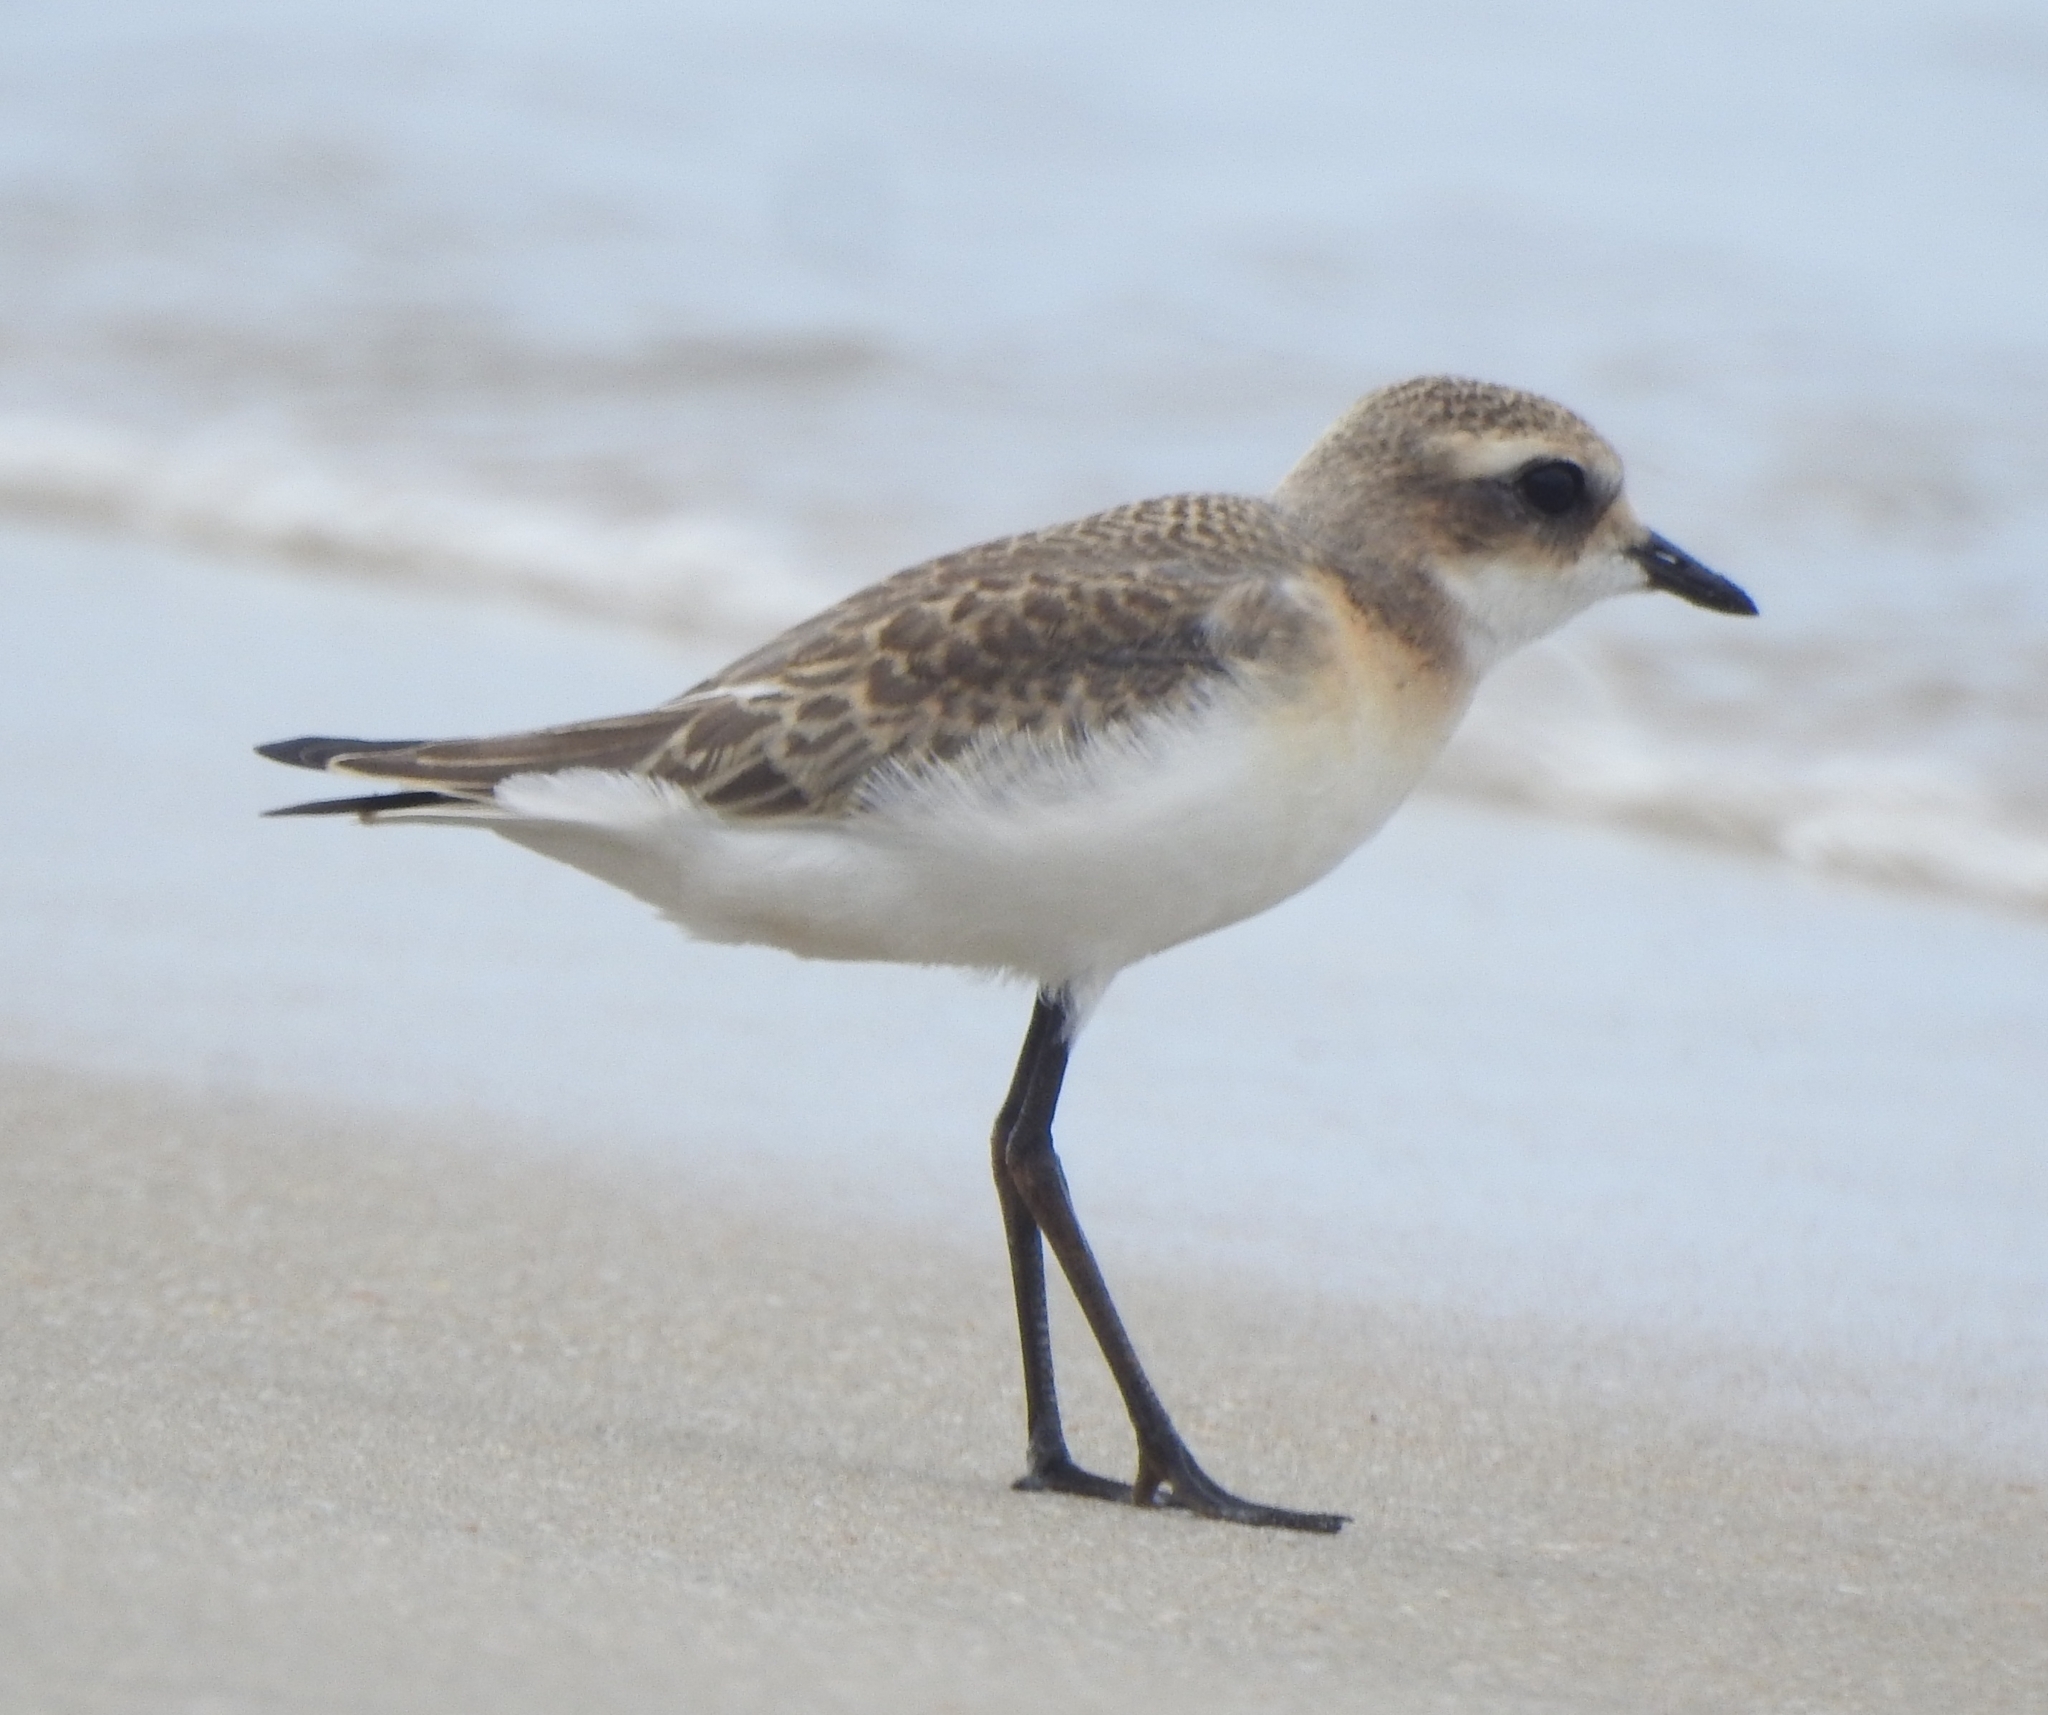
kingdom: Animalia
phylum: Chordata
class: Aves
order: Charadriiformes
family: Charadriidae
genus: Anarhynchus
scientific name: Anarhynchus
